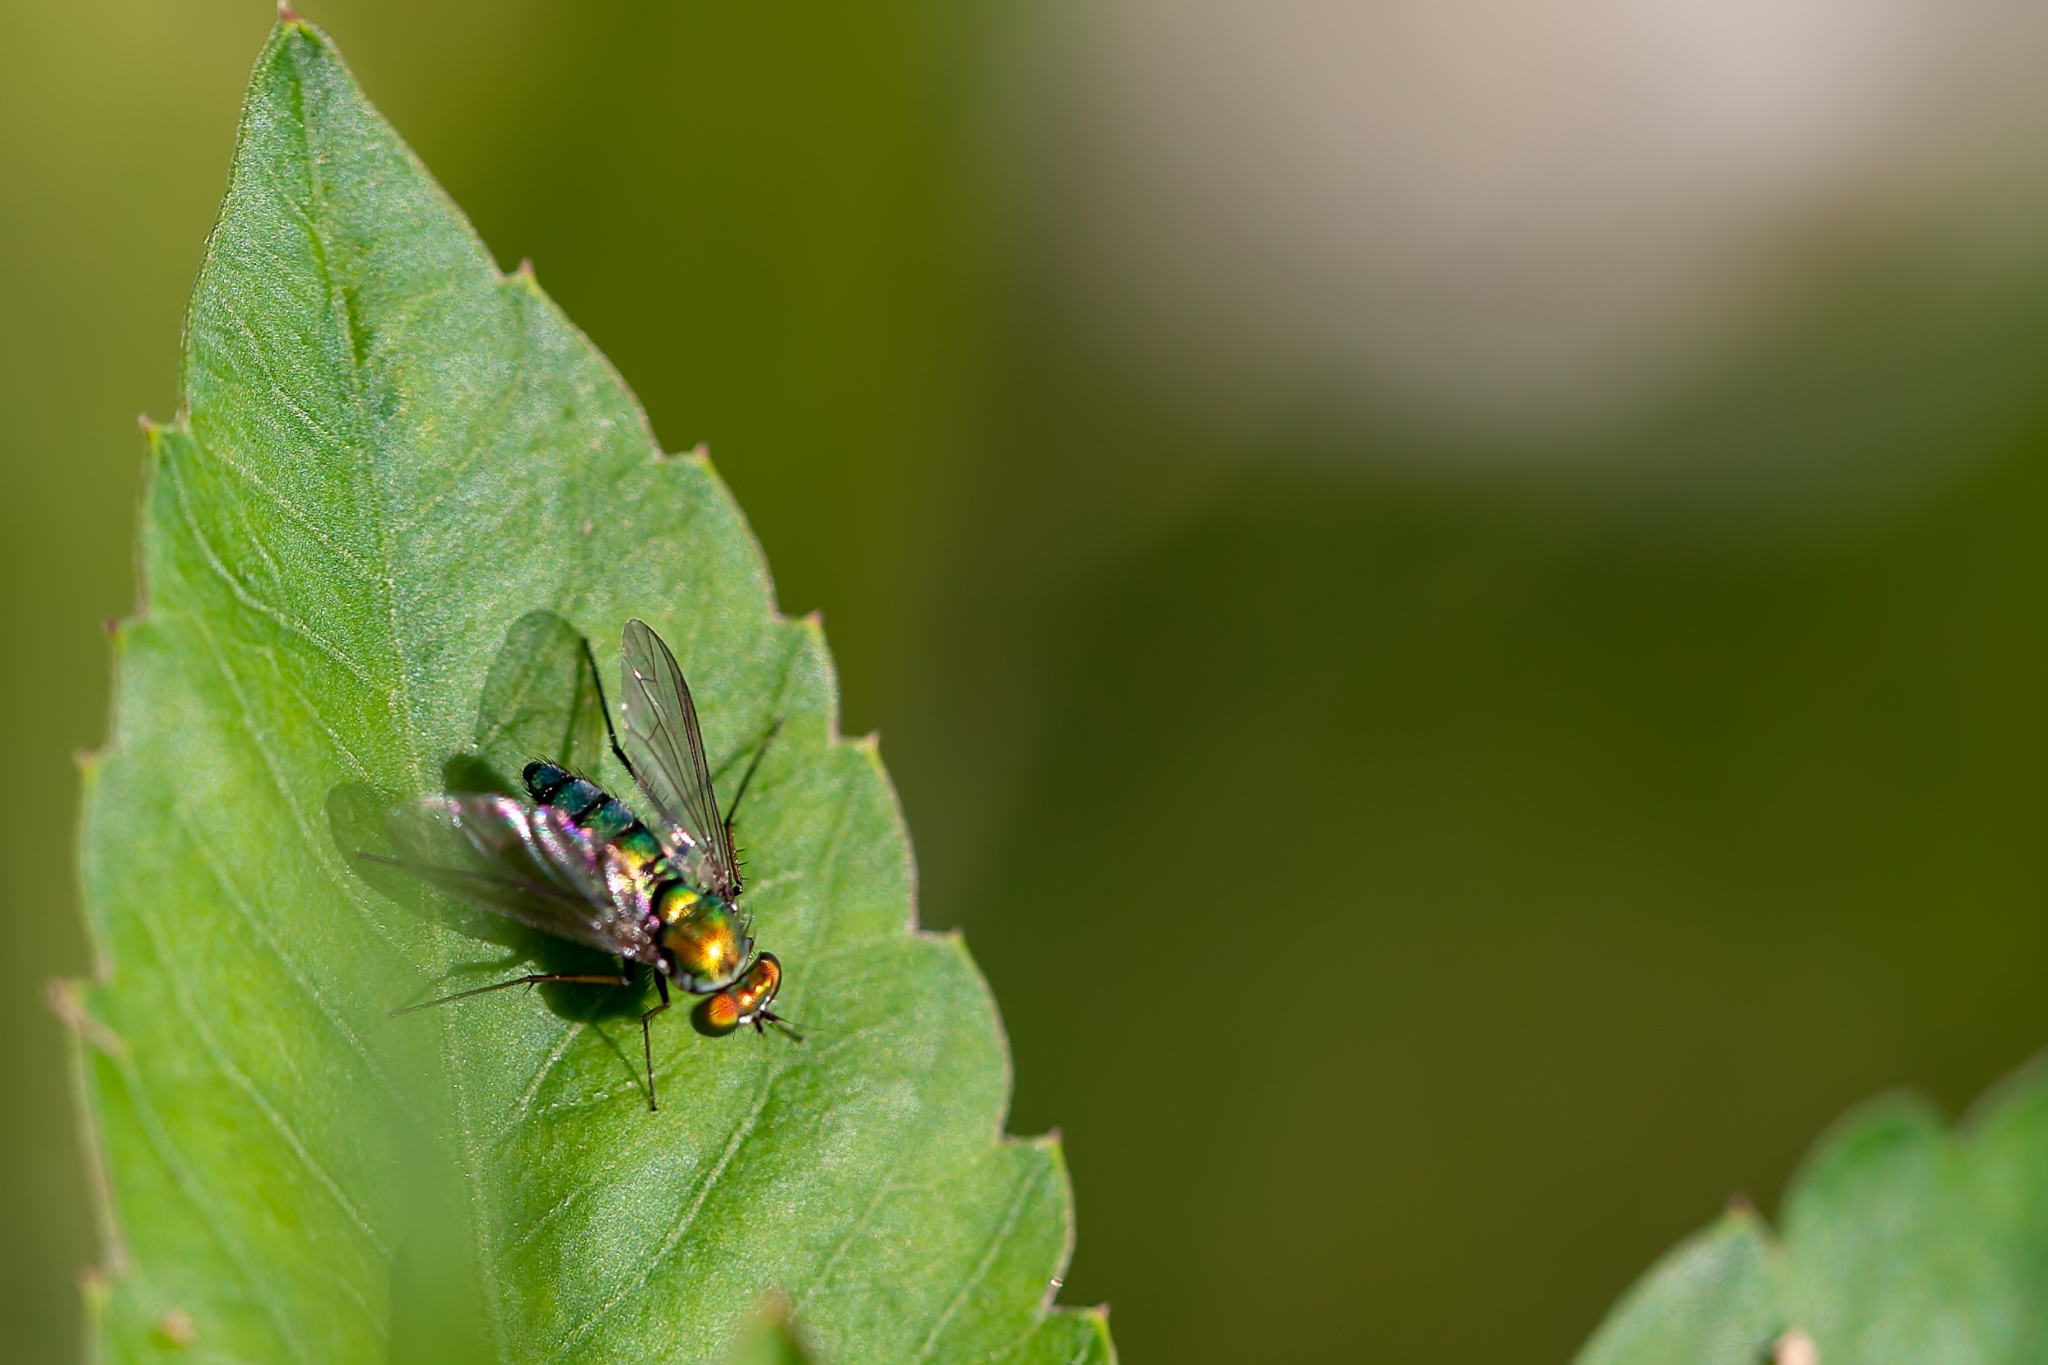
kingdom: Animalia
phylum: Arthropoda
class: Insecta
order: Diptera
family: Dolichopodidae
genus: Condylostylus
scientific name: Condylostylus longicornis
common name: Long-legged fly
